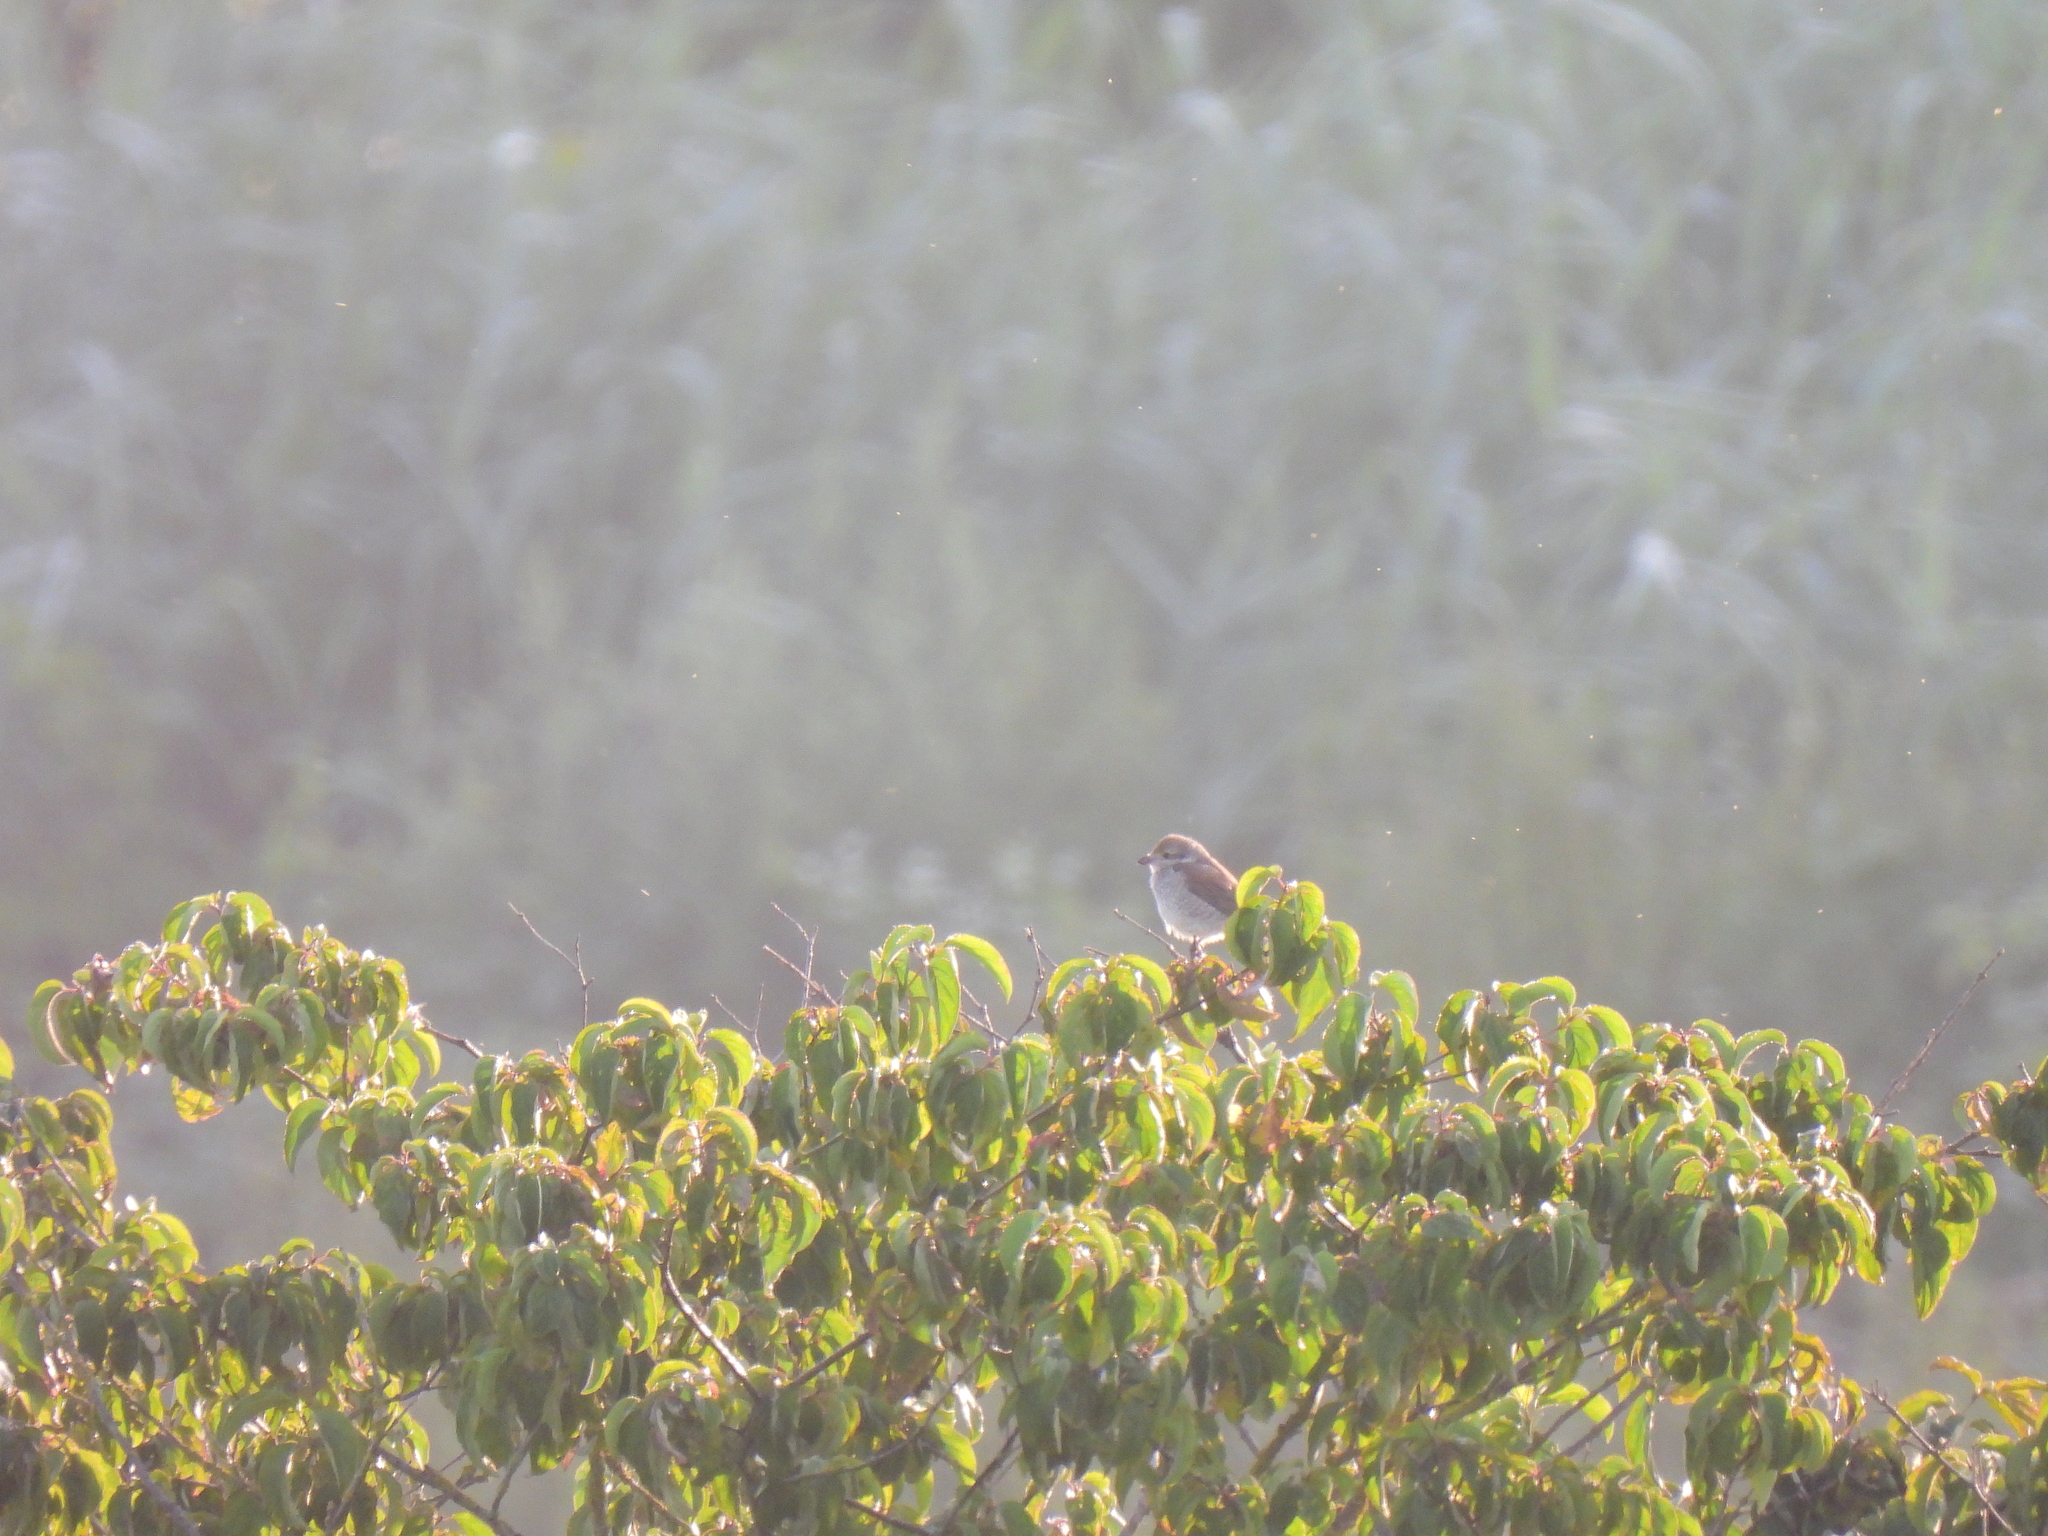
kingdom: Animalia
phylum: Chordata
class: Aves
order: Passeriformes
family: Laniidae
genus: Lanius
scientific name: Lanius collurio
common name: Red-backed shrike
